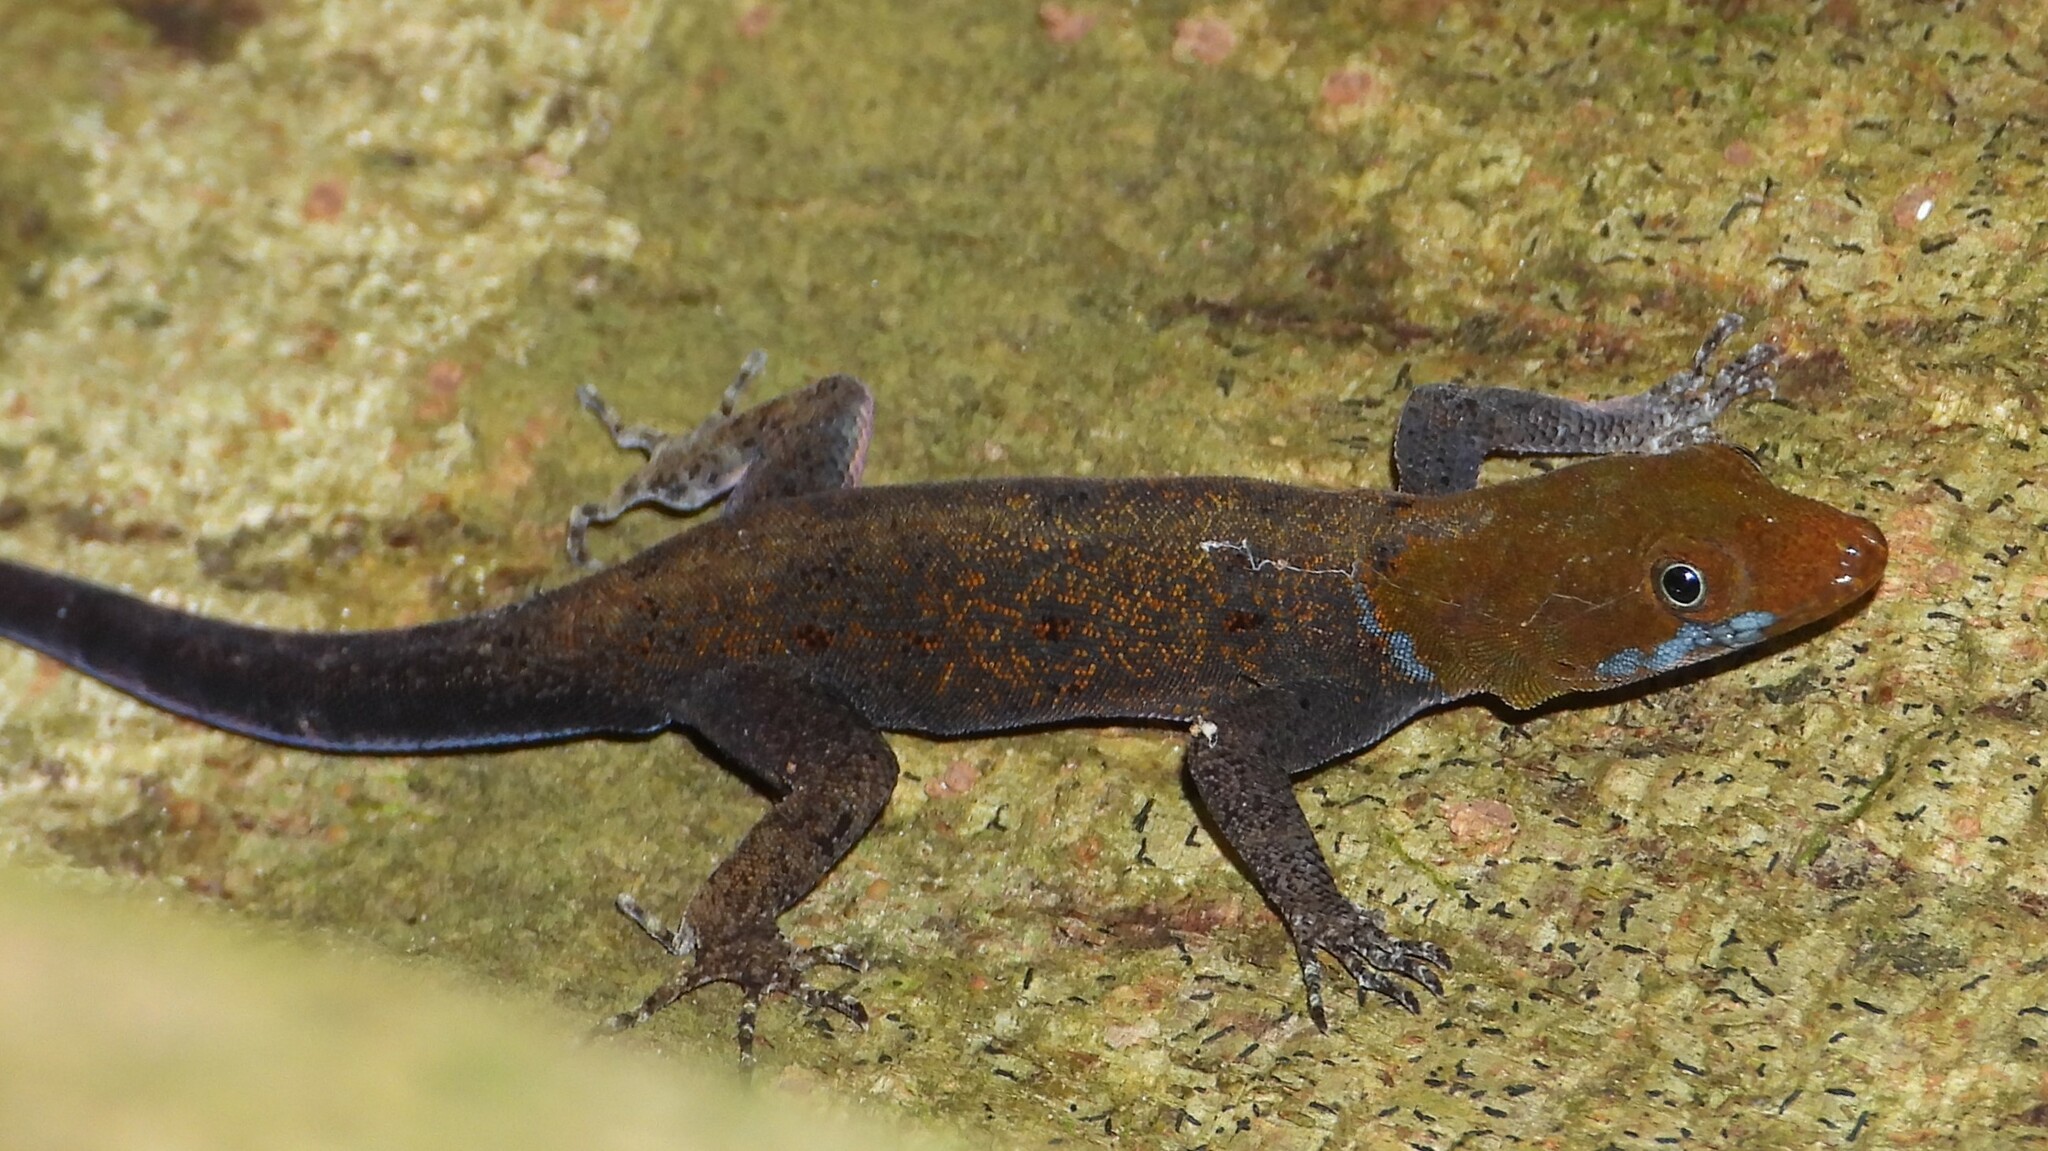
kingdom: Animalia
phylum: Chordata
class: Squamata
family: Sphaerodactylidae
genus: Gonatodes
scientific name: Gonatodes albogularis
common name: Yellow-headed gecko
